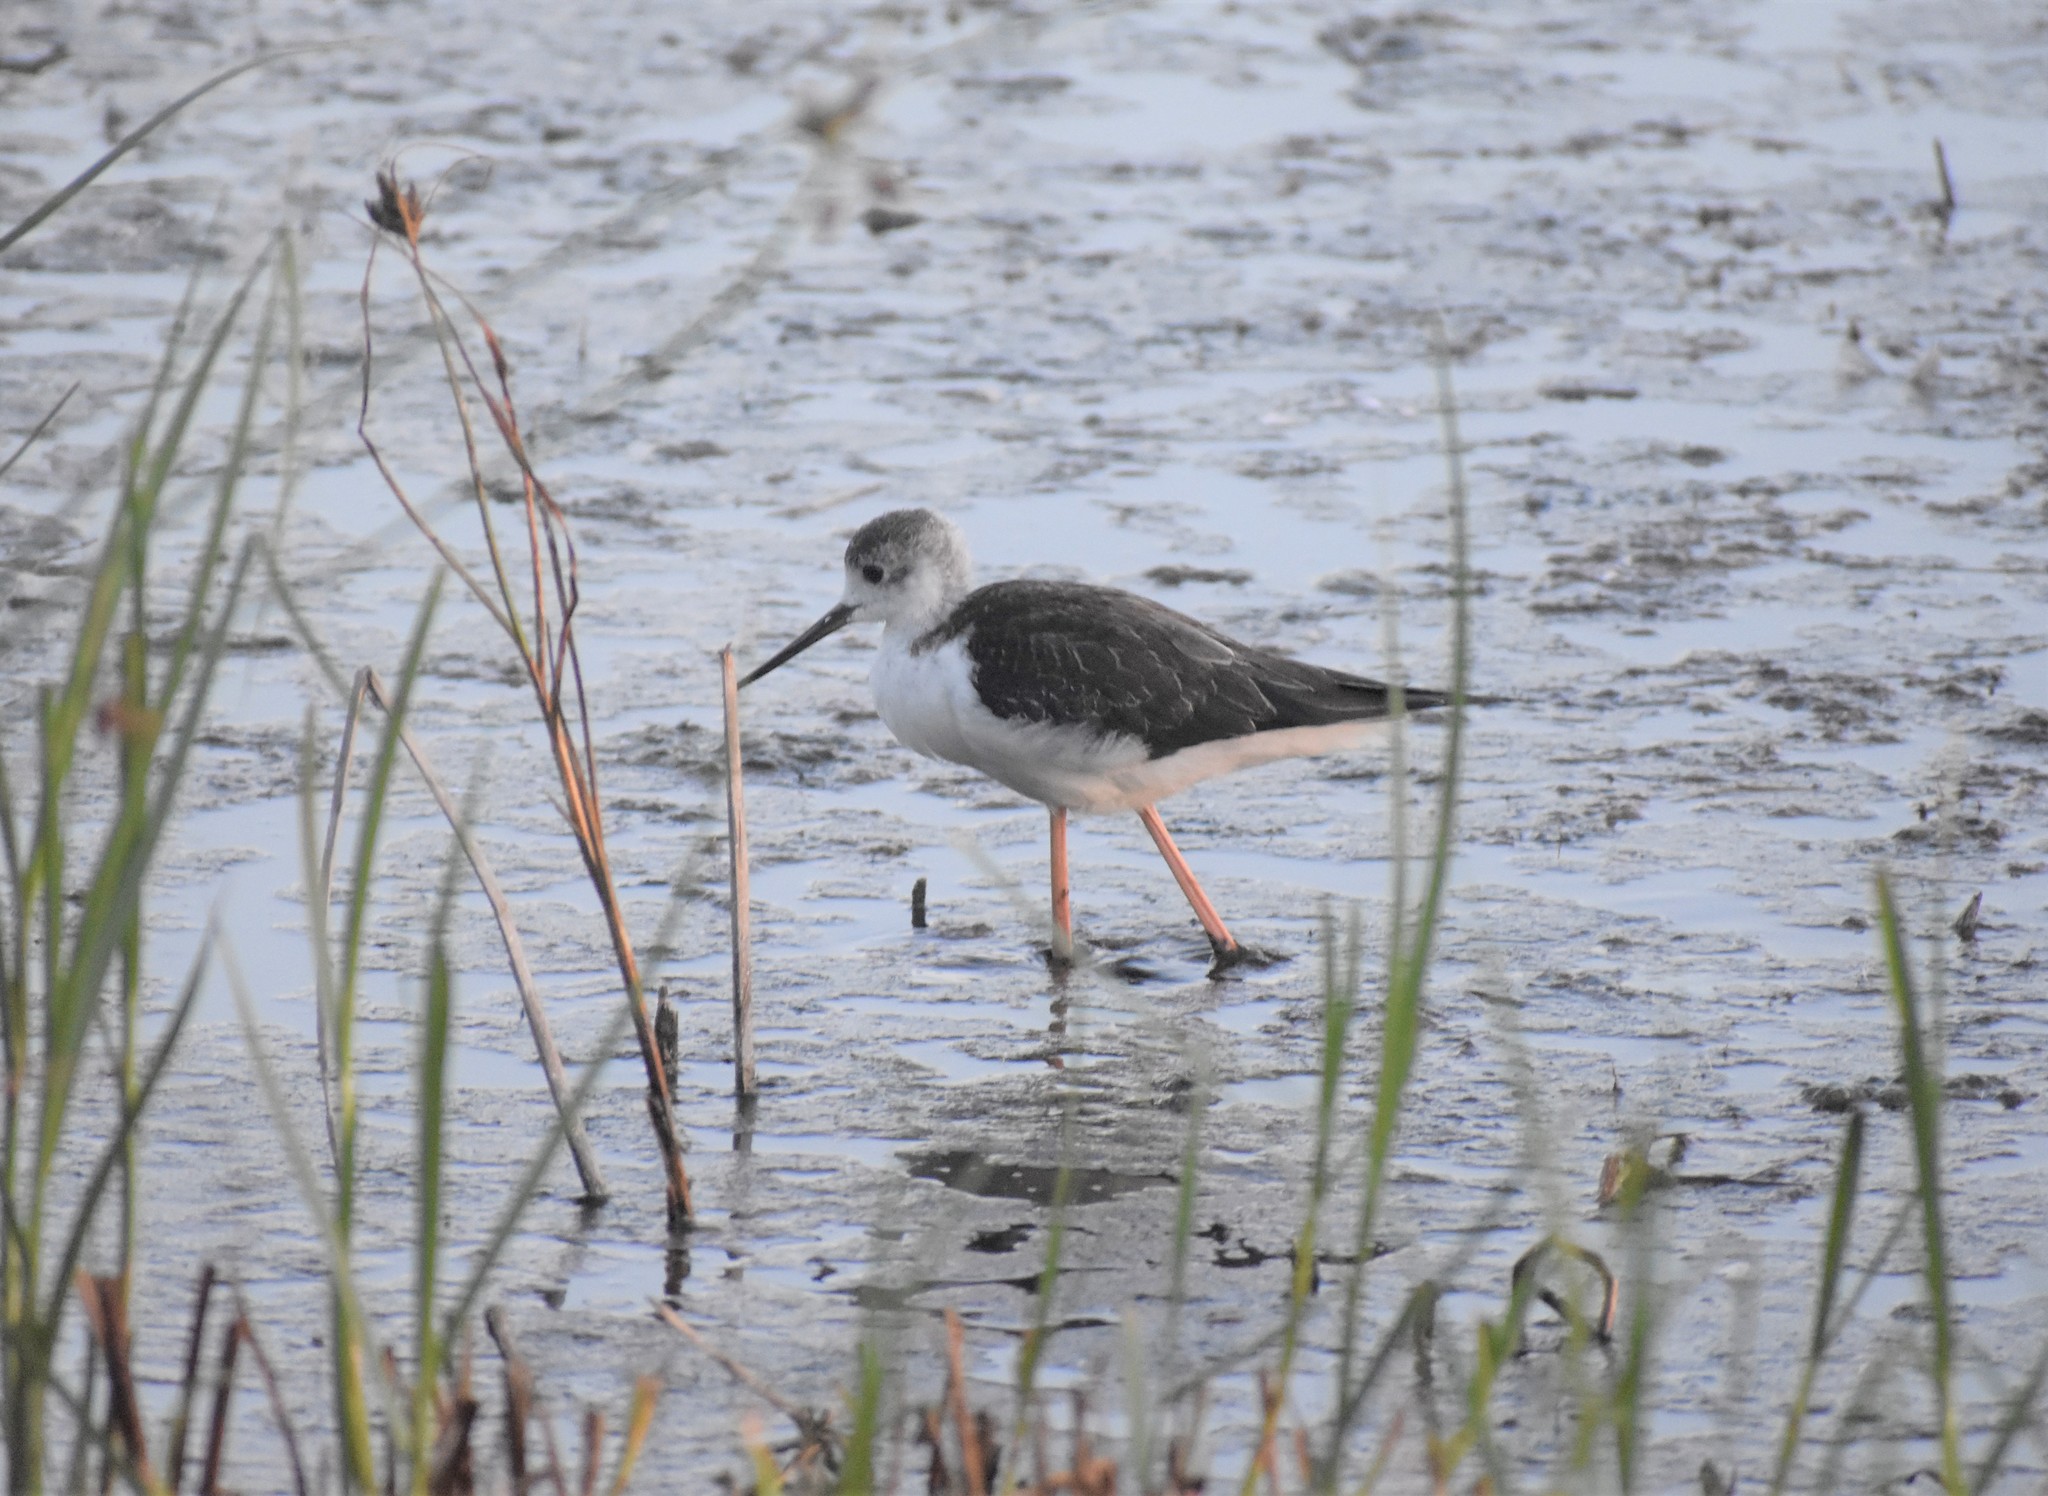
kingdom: Animalia
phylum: Chordata
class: Aves
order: Charadriiformes
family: Recurvirostridae
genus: Himantopus
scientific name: Himantopus himantopus
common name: Black-winged stilt
